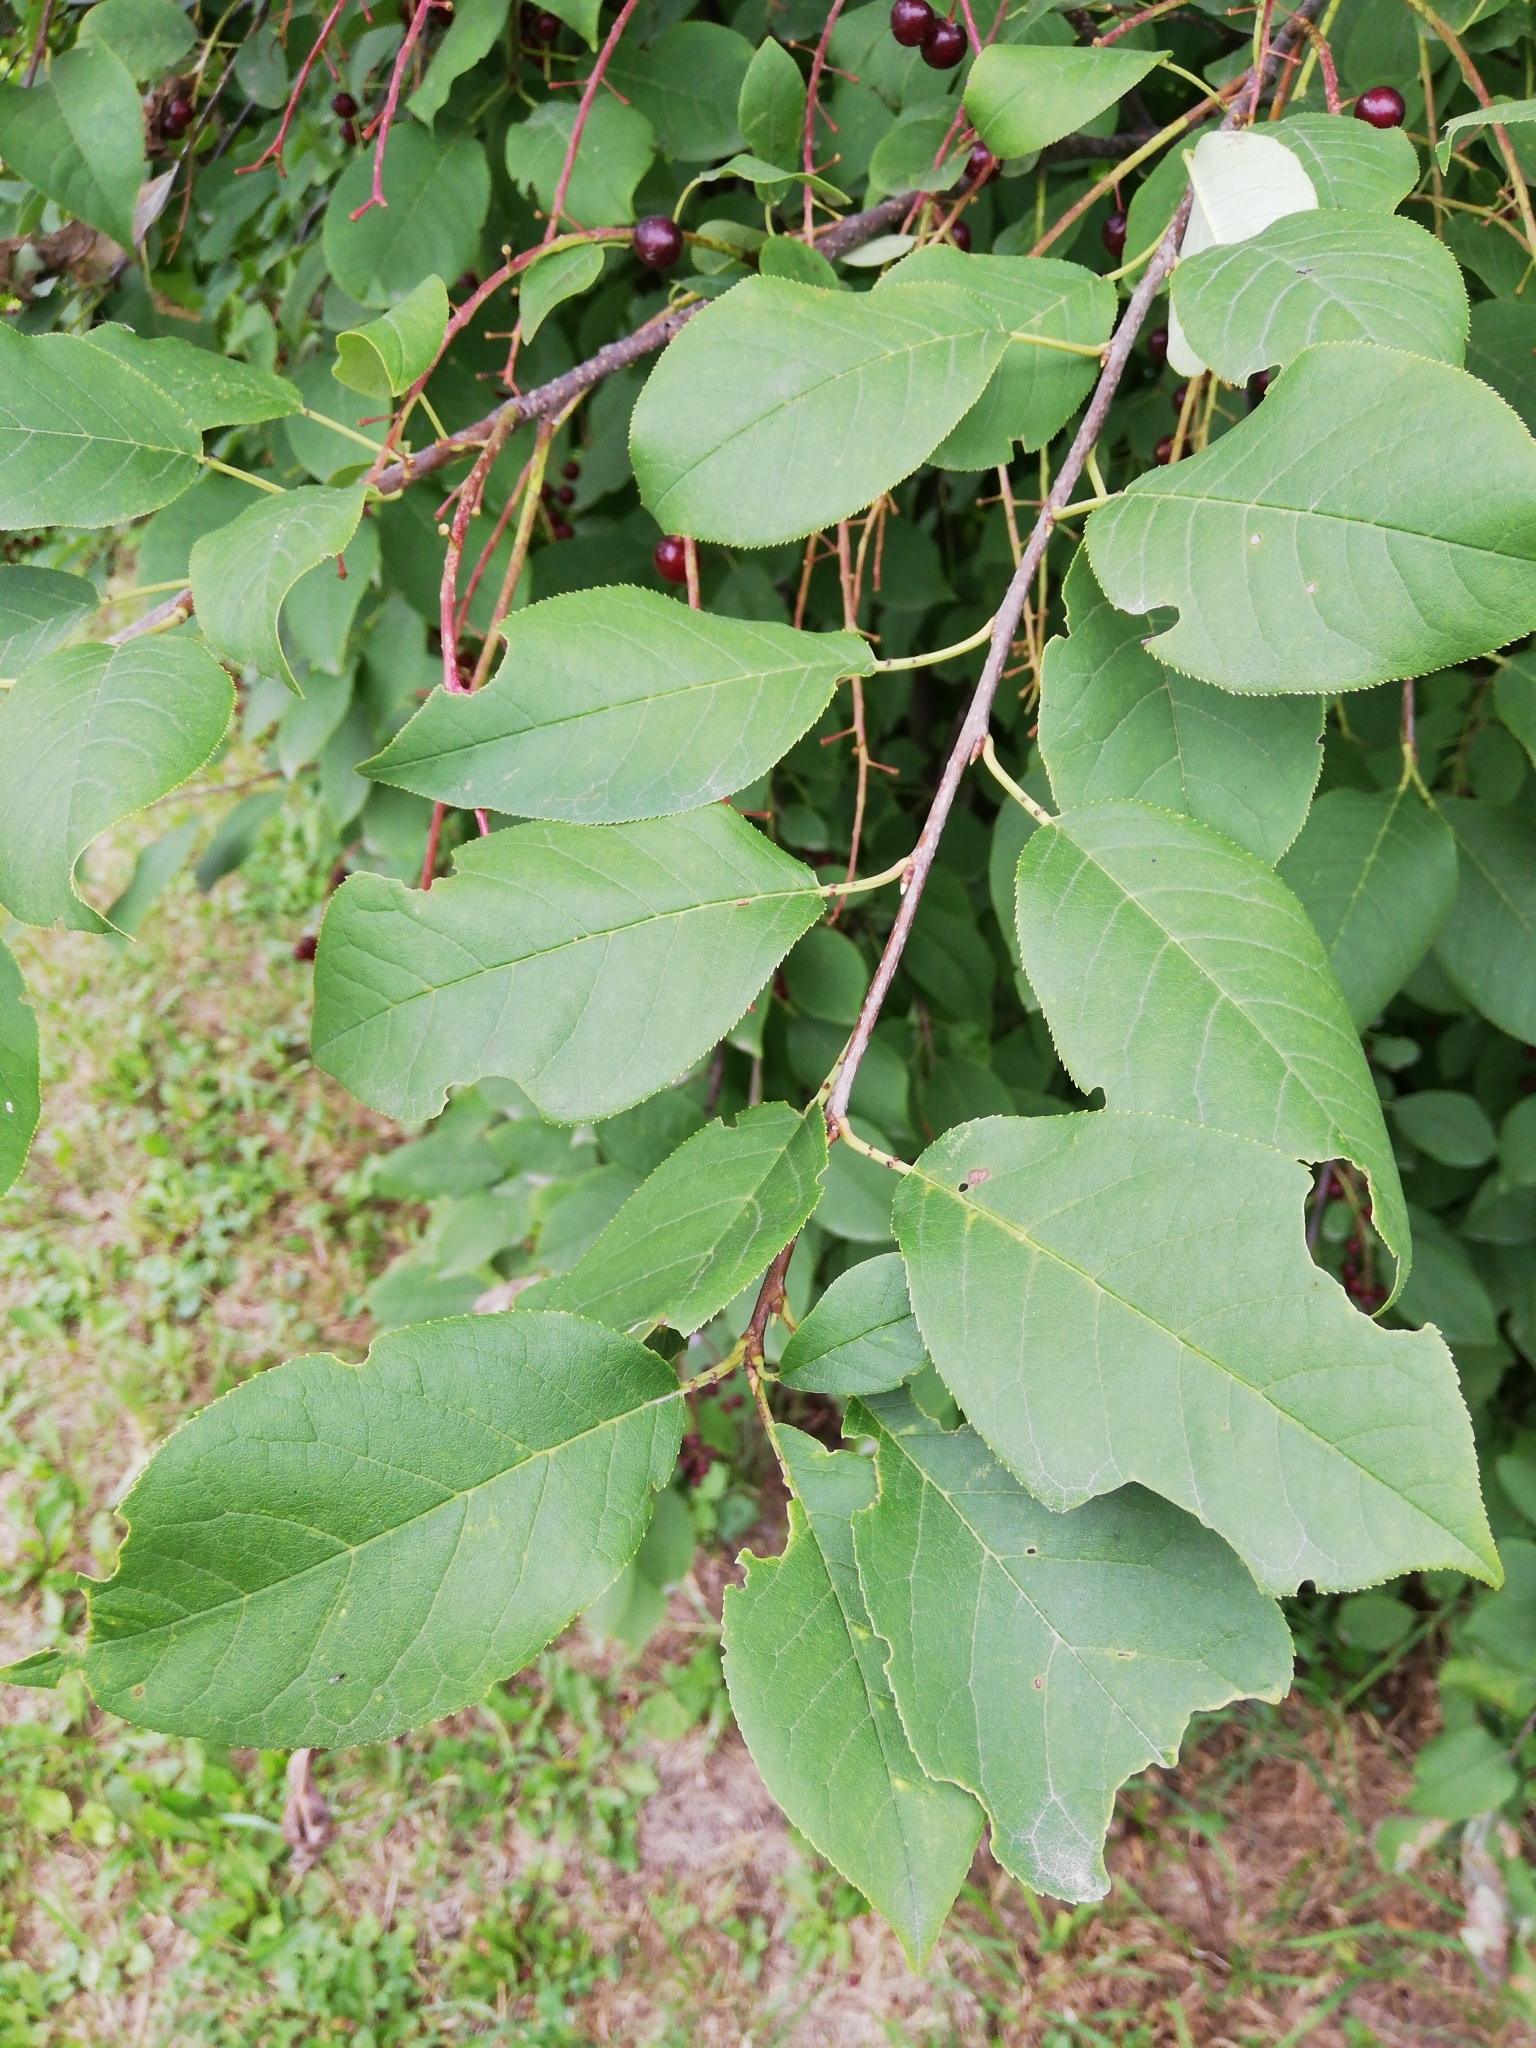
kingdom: Plantae
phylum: Tracheophyta
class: Magnoliopsida
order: Rosales
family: Rosaceae
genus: Prunus
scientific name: Prunus virginiana
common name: Chokecherry
